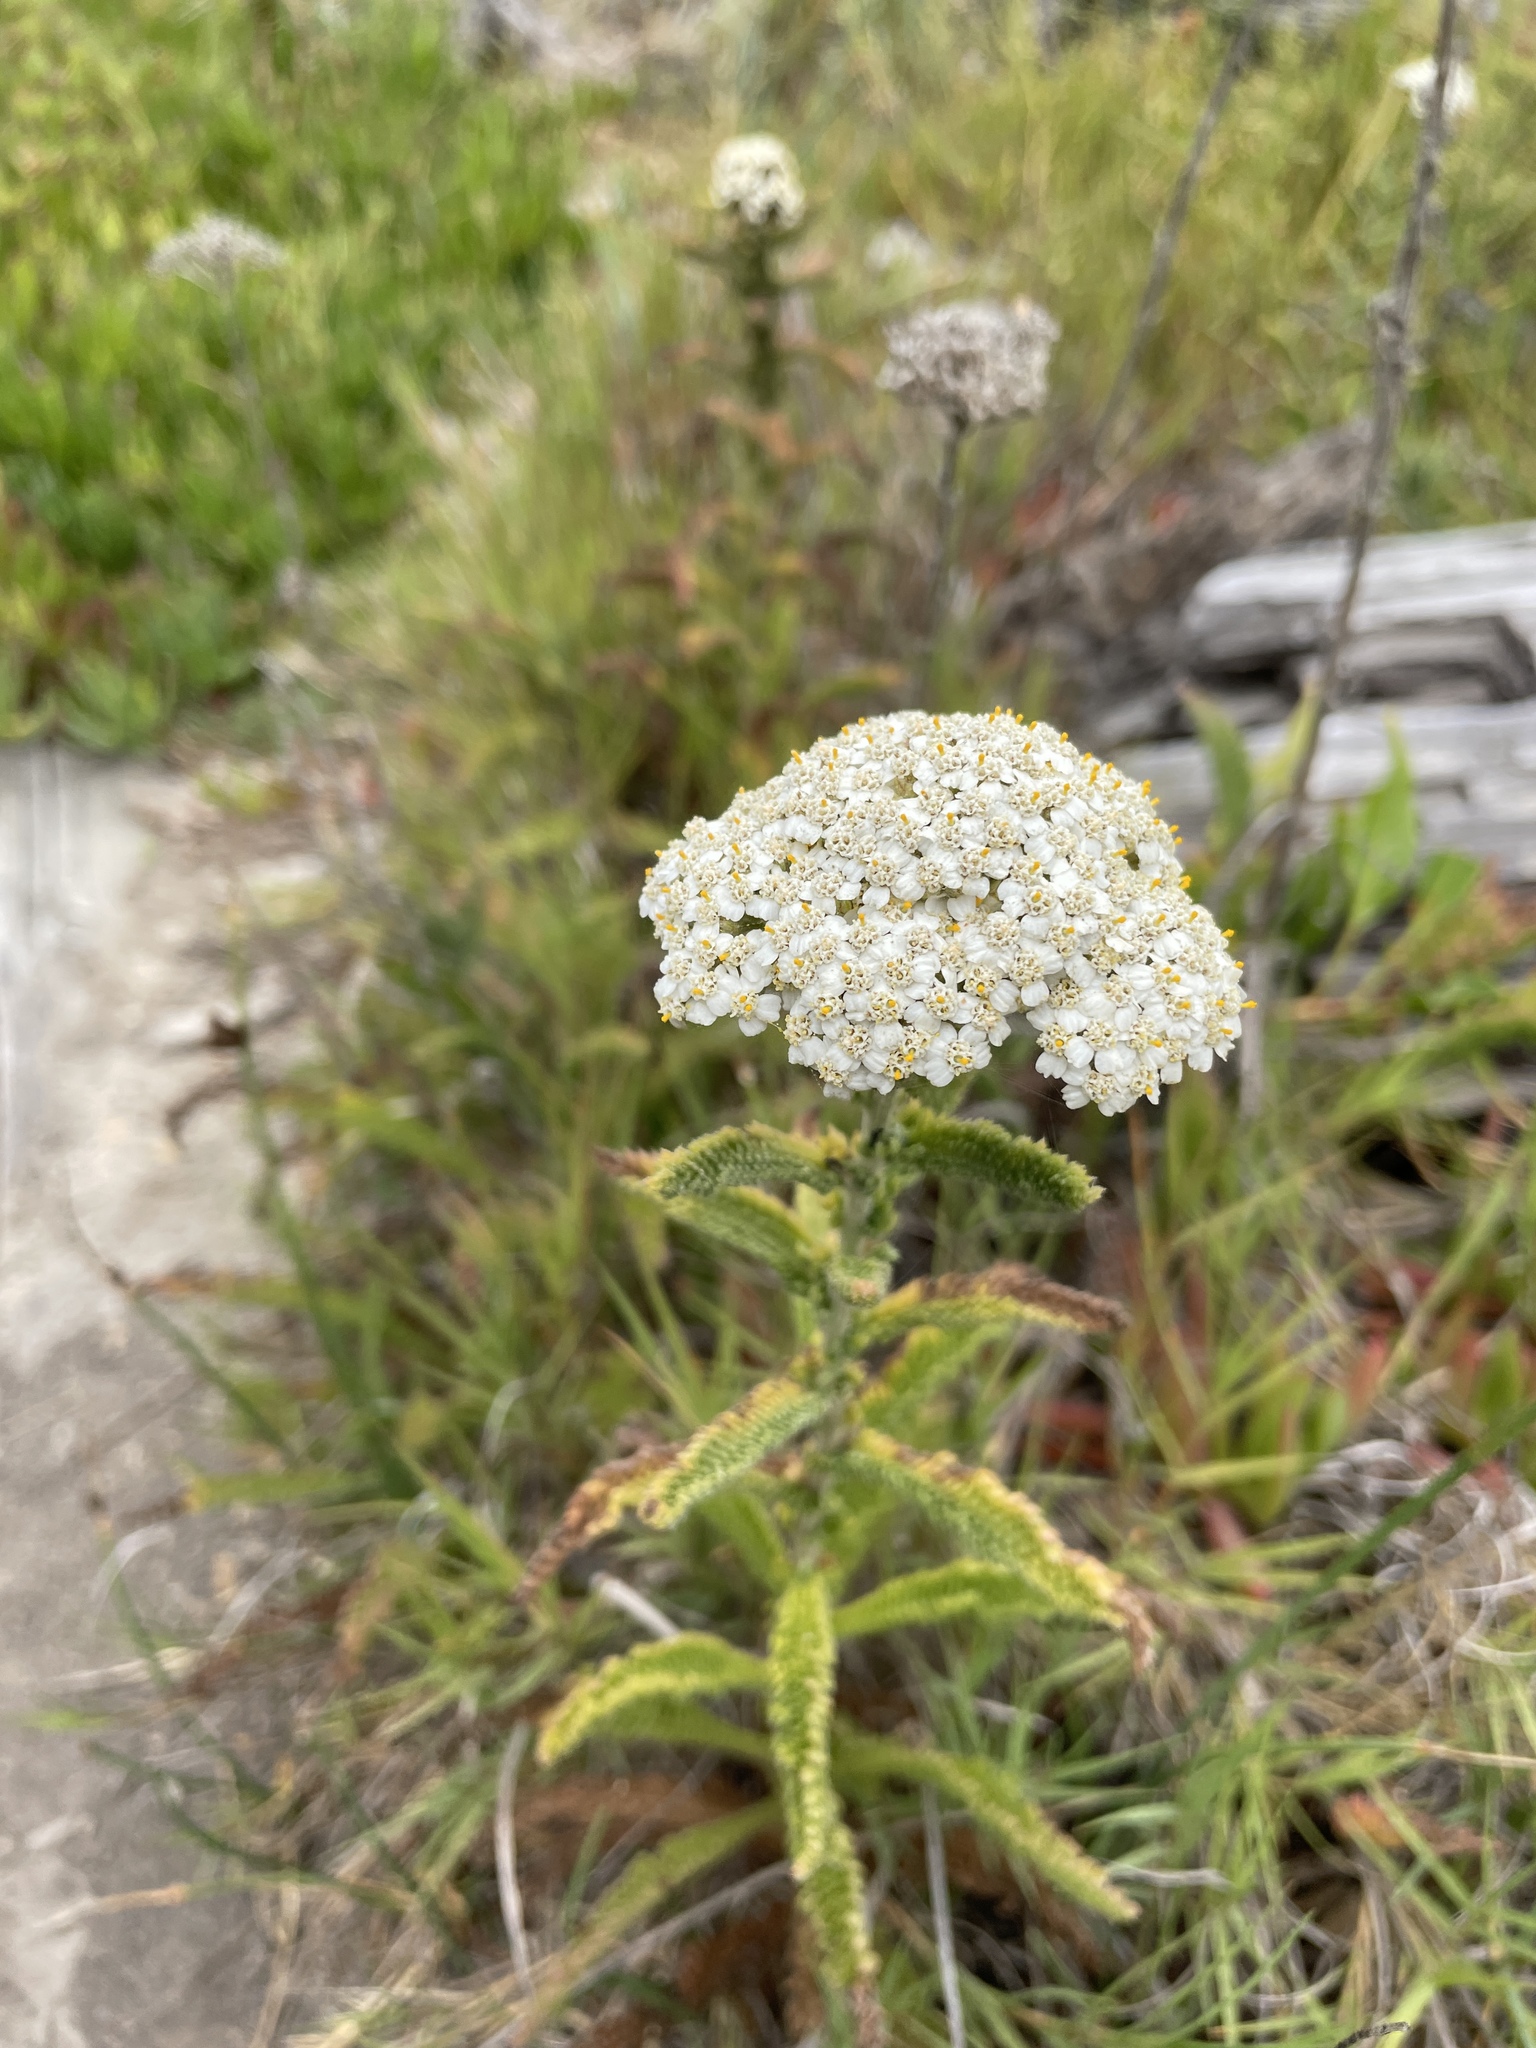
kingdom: Plantae
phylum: Tracheophyta
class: Magnoliopsida
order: Asterales
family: Asteraceae
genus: Achillea
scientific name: Achillea millefolium
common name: Yarrow
